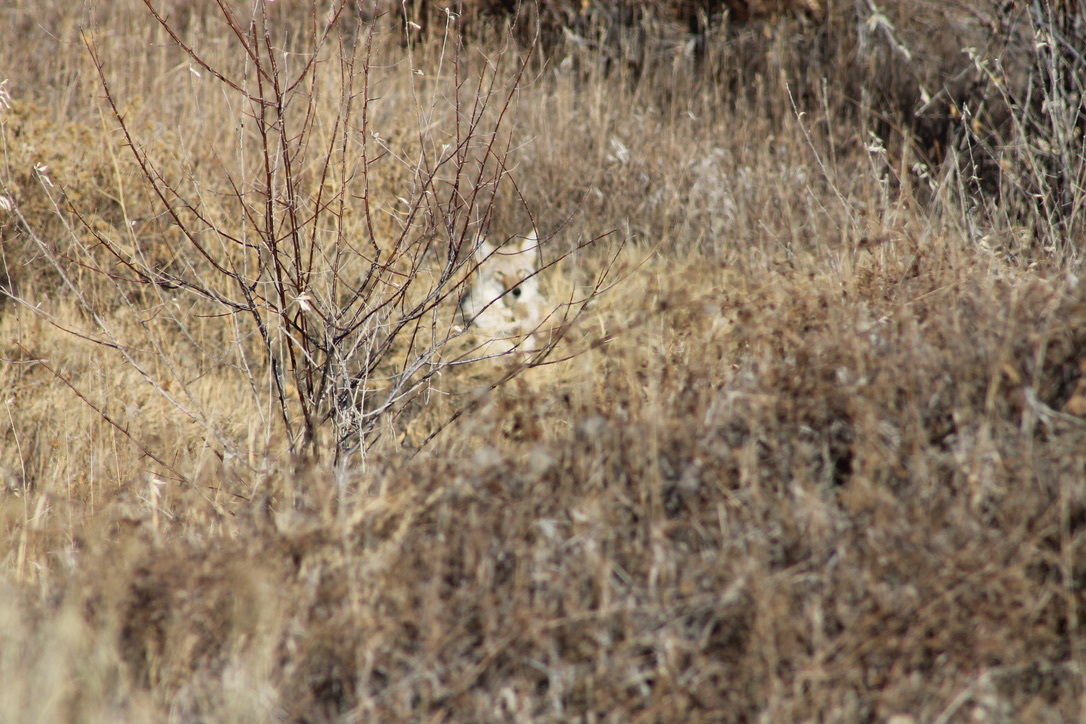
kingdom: Animalia
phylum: Chordata
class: Mammalia
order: Carnivora
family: Canidae
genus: Canis
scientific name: Canis latrans
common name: Coyote
